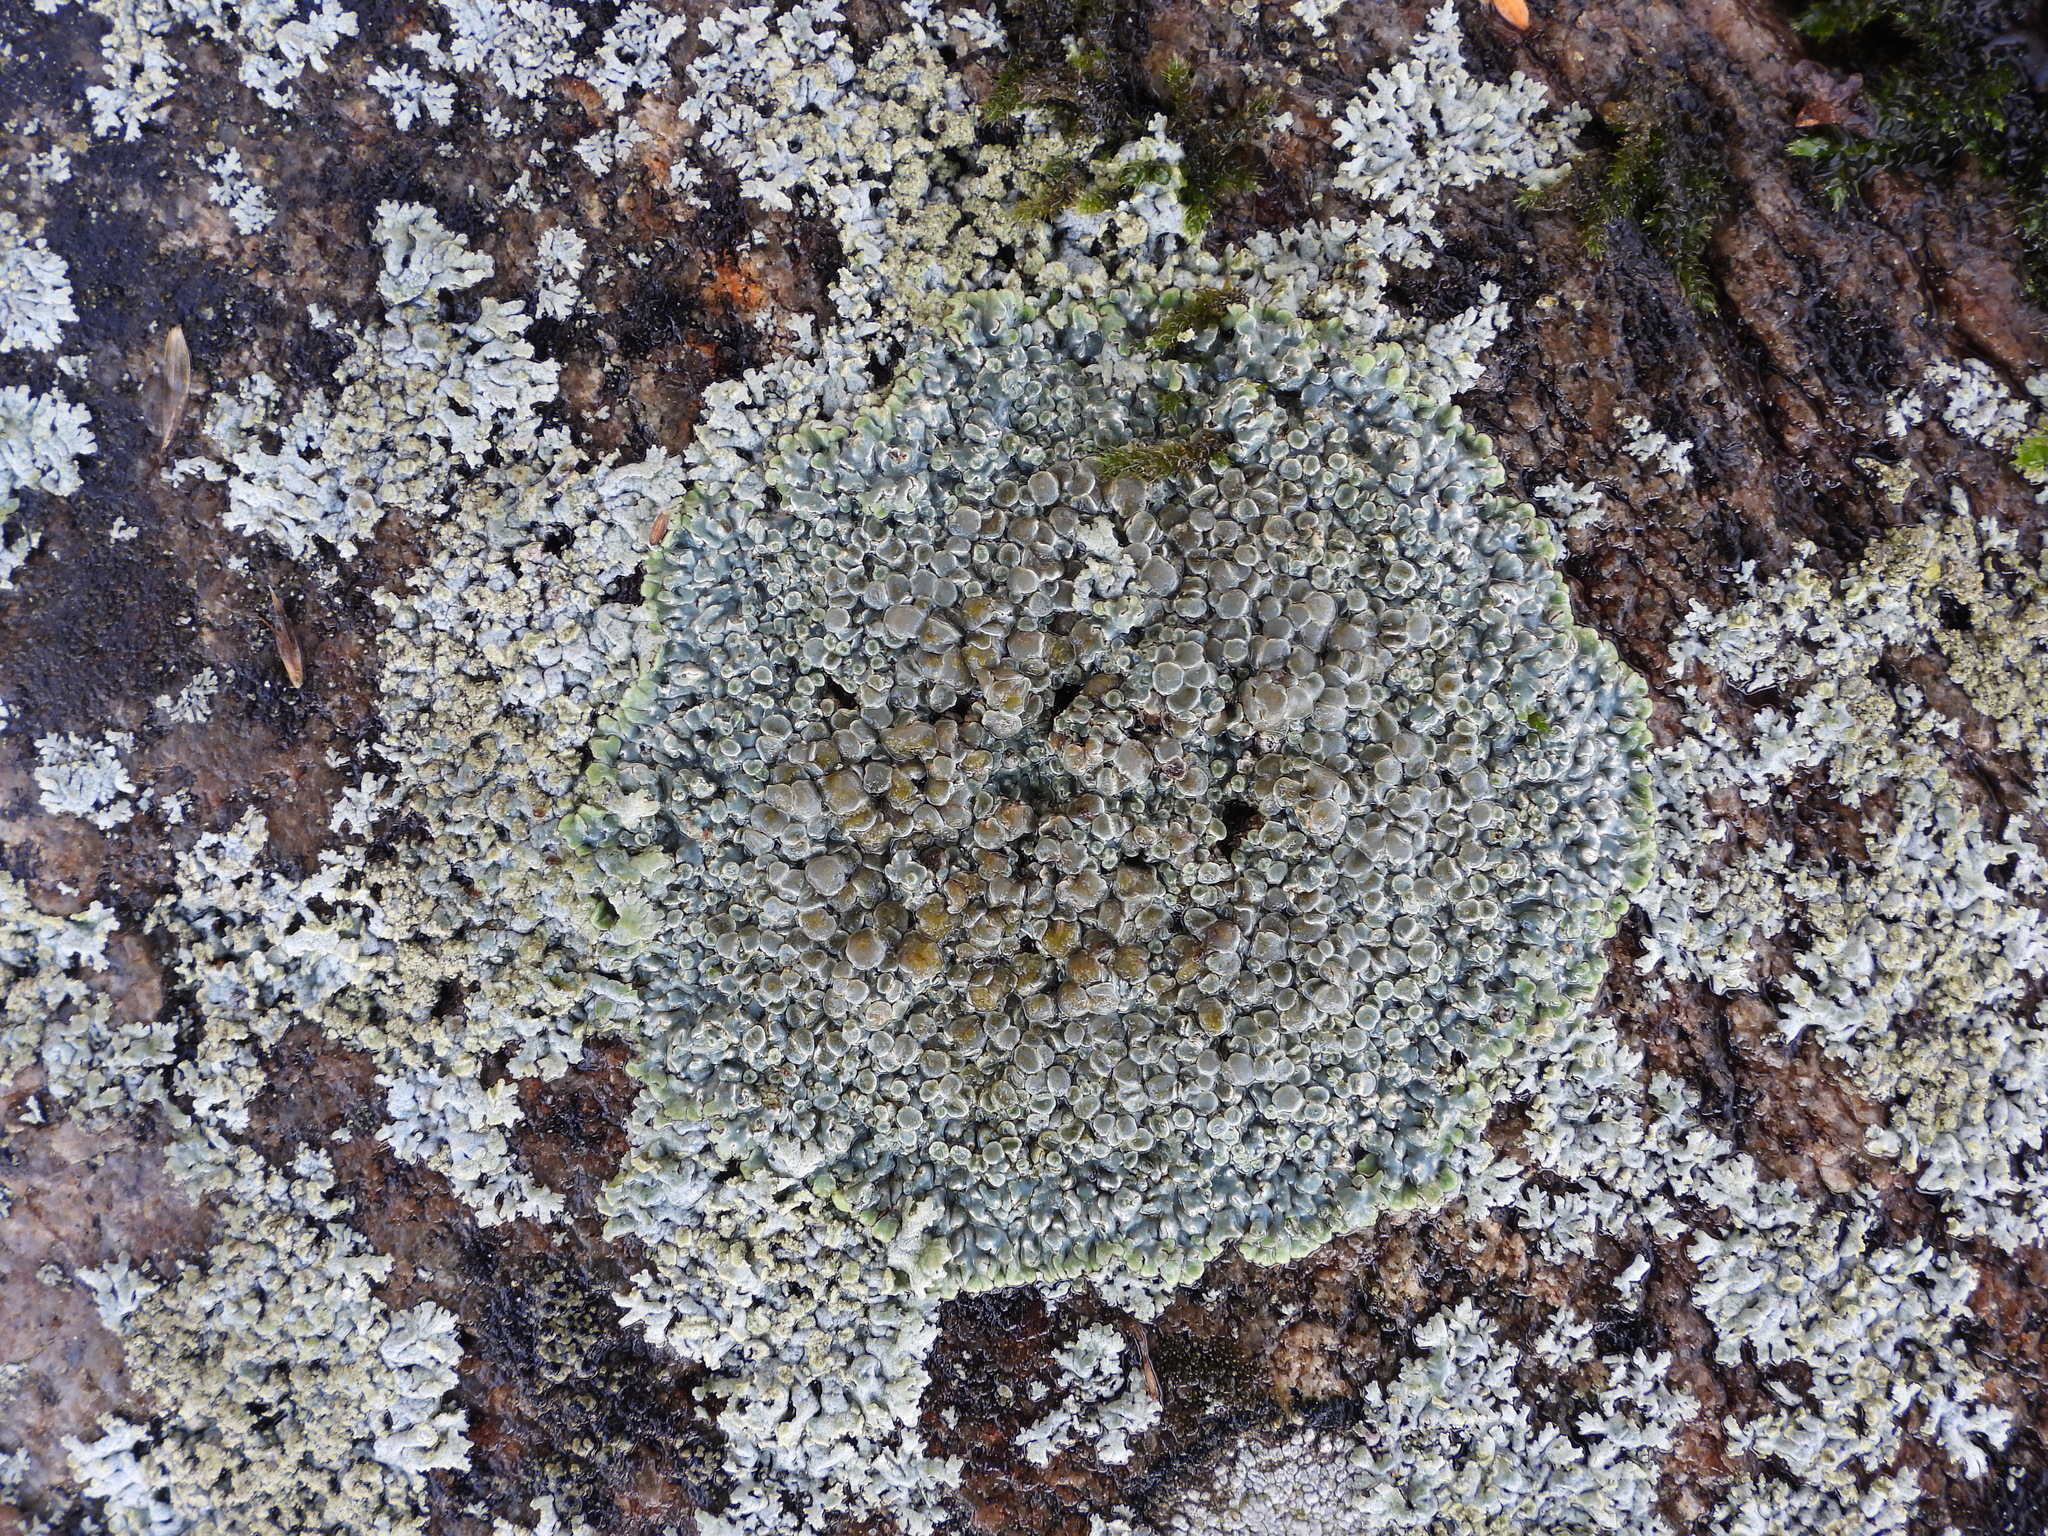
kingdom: Fungi
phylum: Ascomycota
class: Lecanoromycetes
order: Lecanorales
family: Lecanoraceae
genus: Protoparmeliopsis
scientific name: Protoparmeliopsis muralis
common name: Stonewall rim lichen
